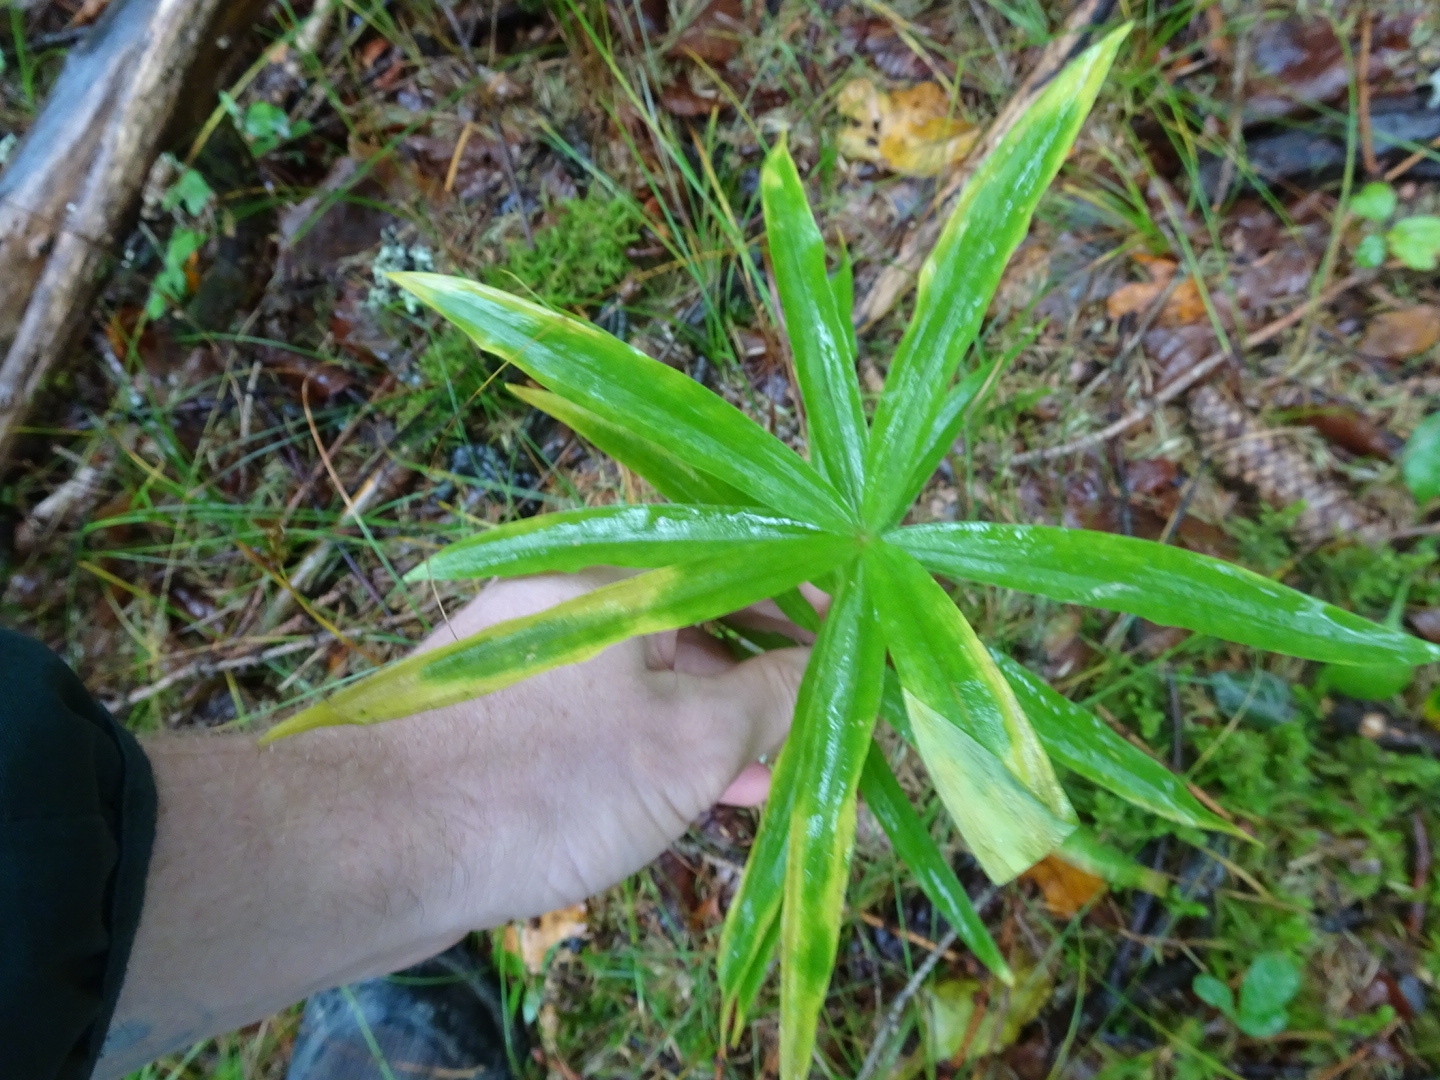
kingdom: Plantae
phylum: Tracheophyta
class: Liliopsida
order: Asparagales
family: Asparagaceae
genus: Polygonatum
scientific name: Polygonatum verticillatum
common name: Whorled solomon's-seal
